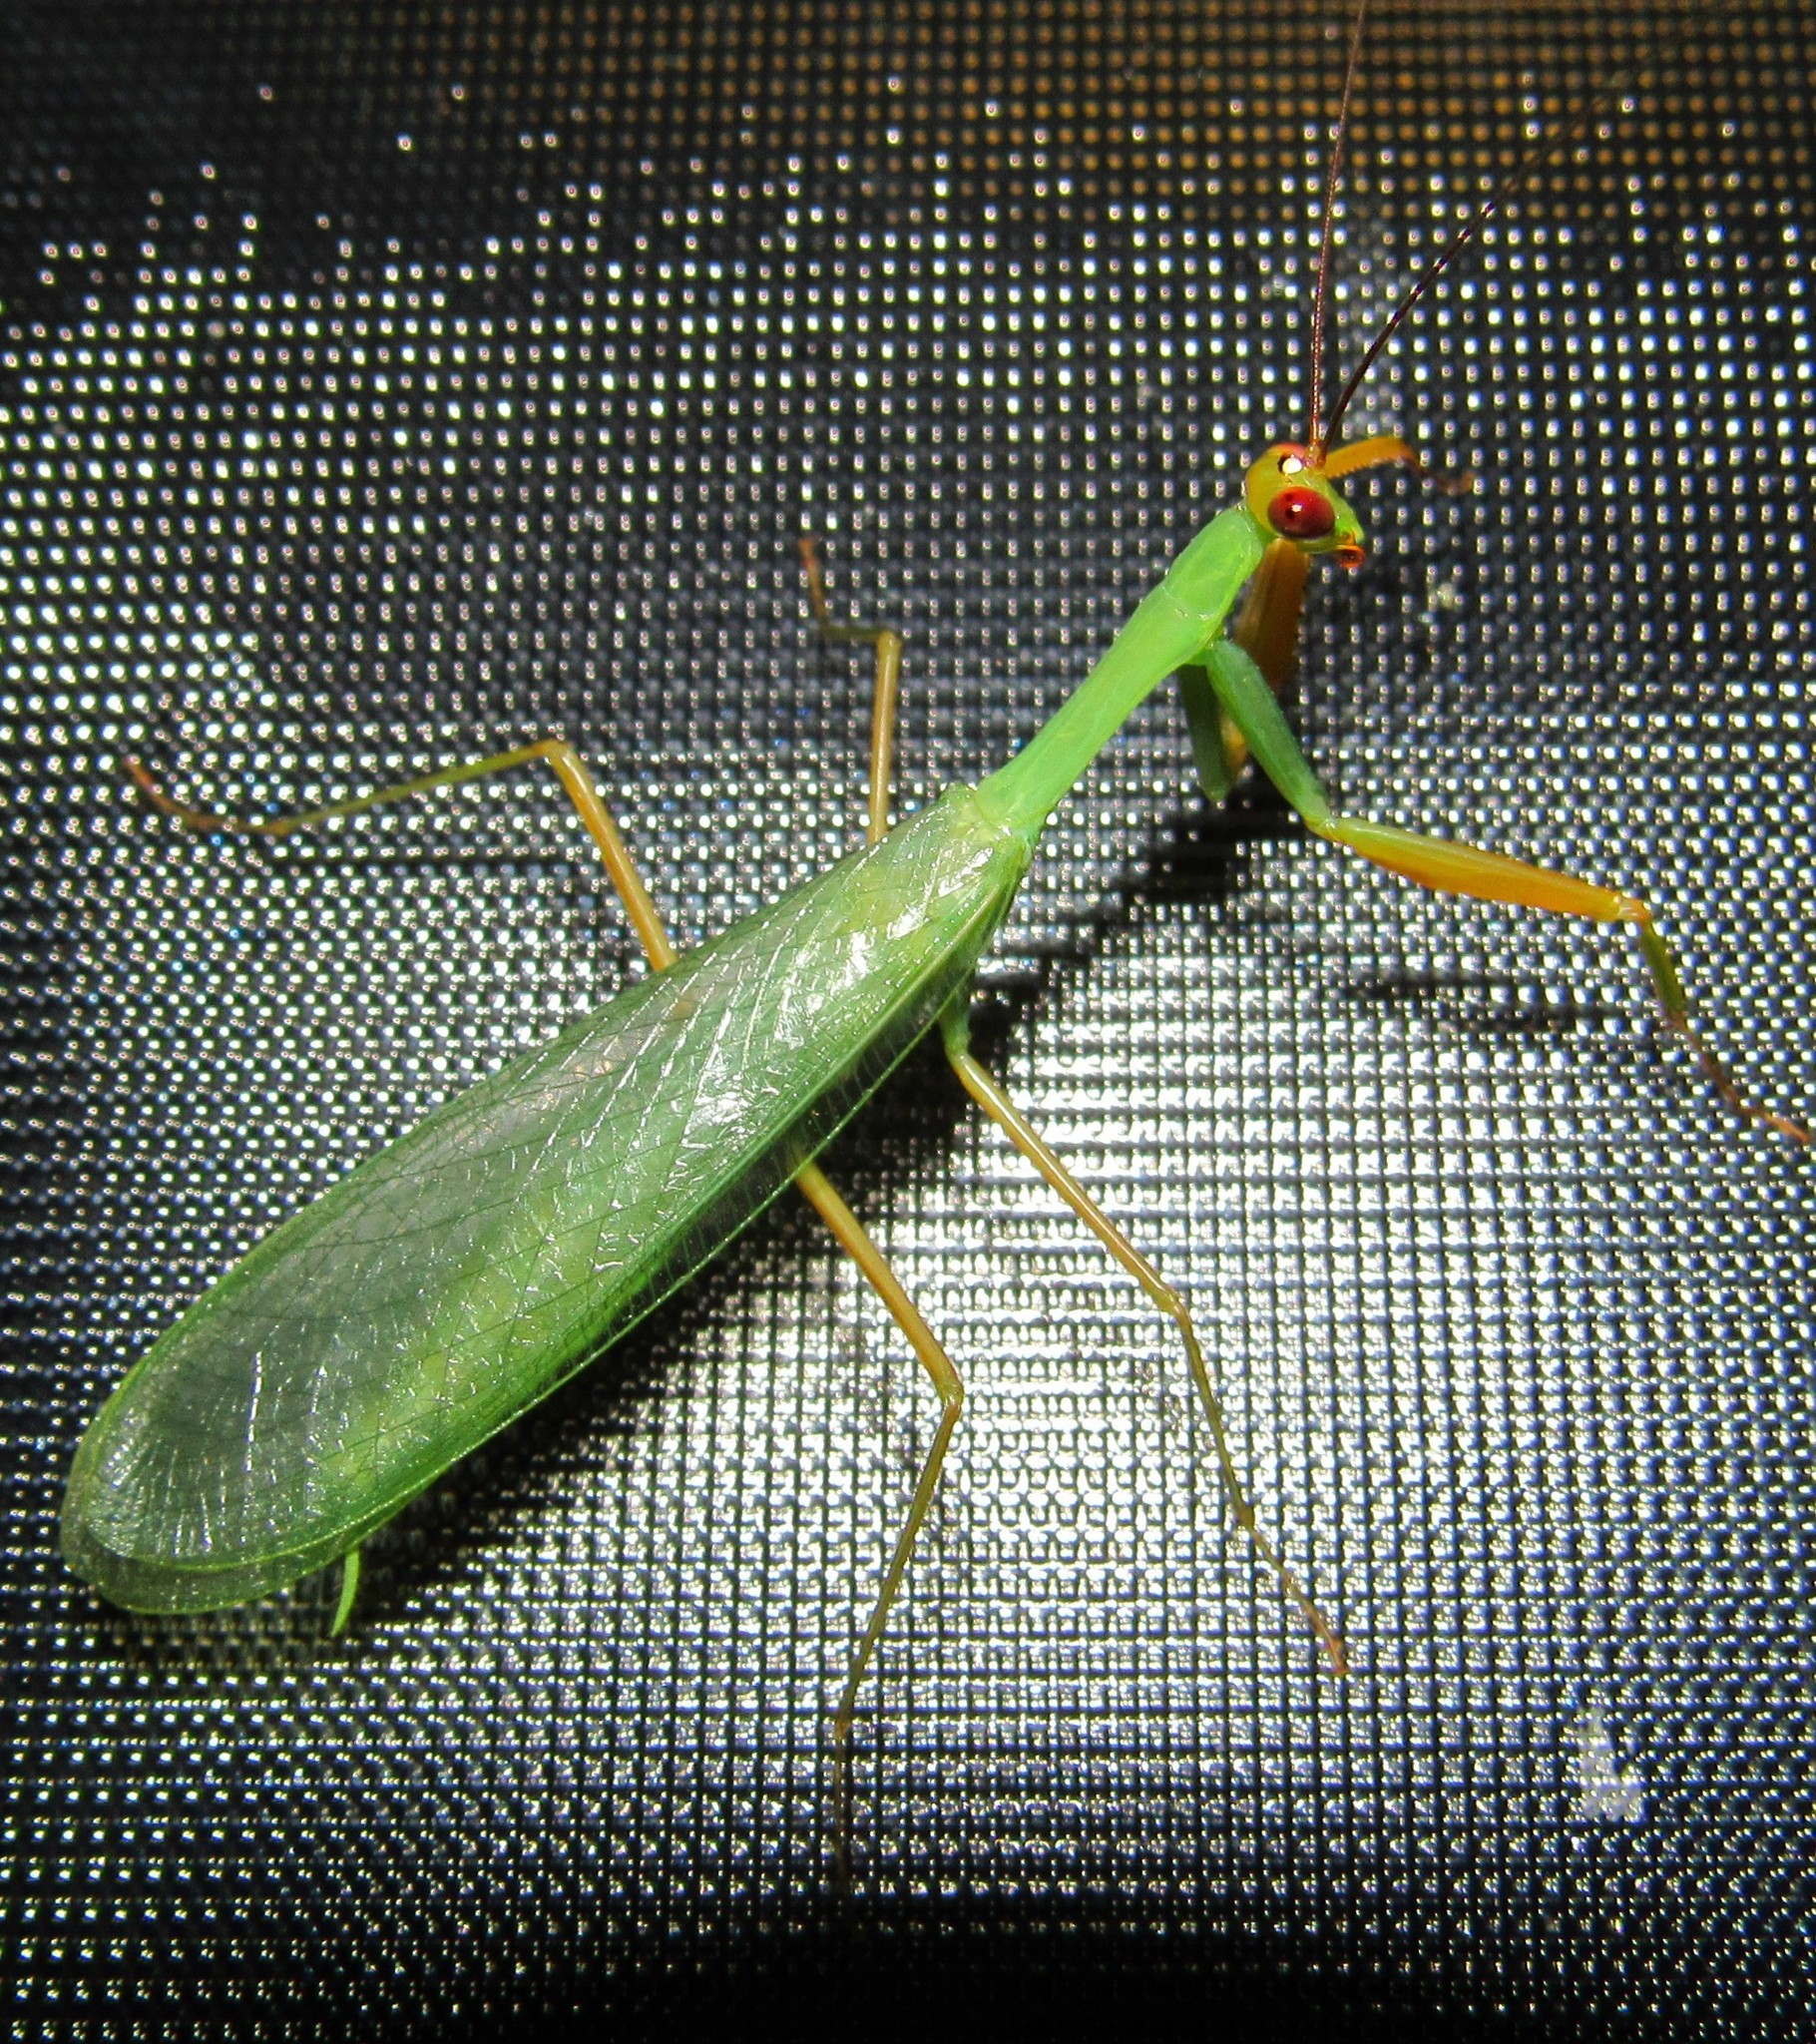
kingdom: Animalia
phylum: Arthropoda
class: Insecta
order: Mantodea
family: Photinaidae
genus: Photina
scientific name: Photina
